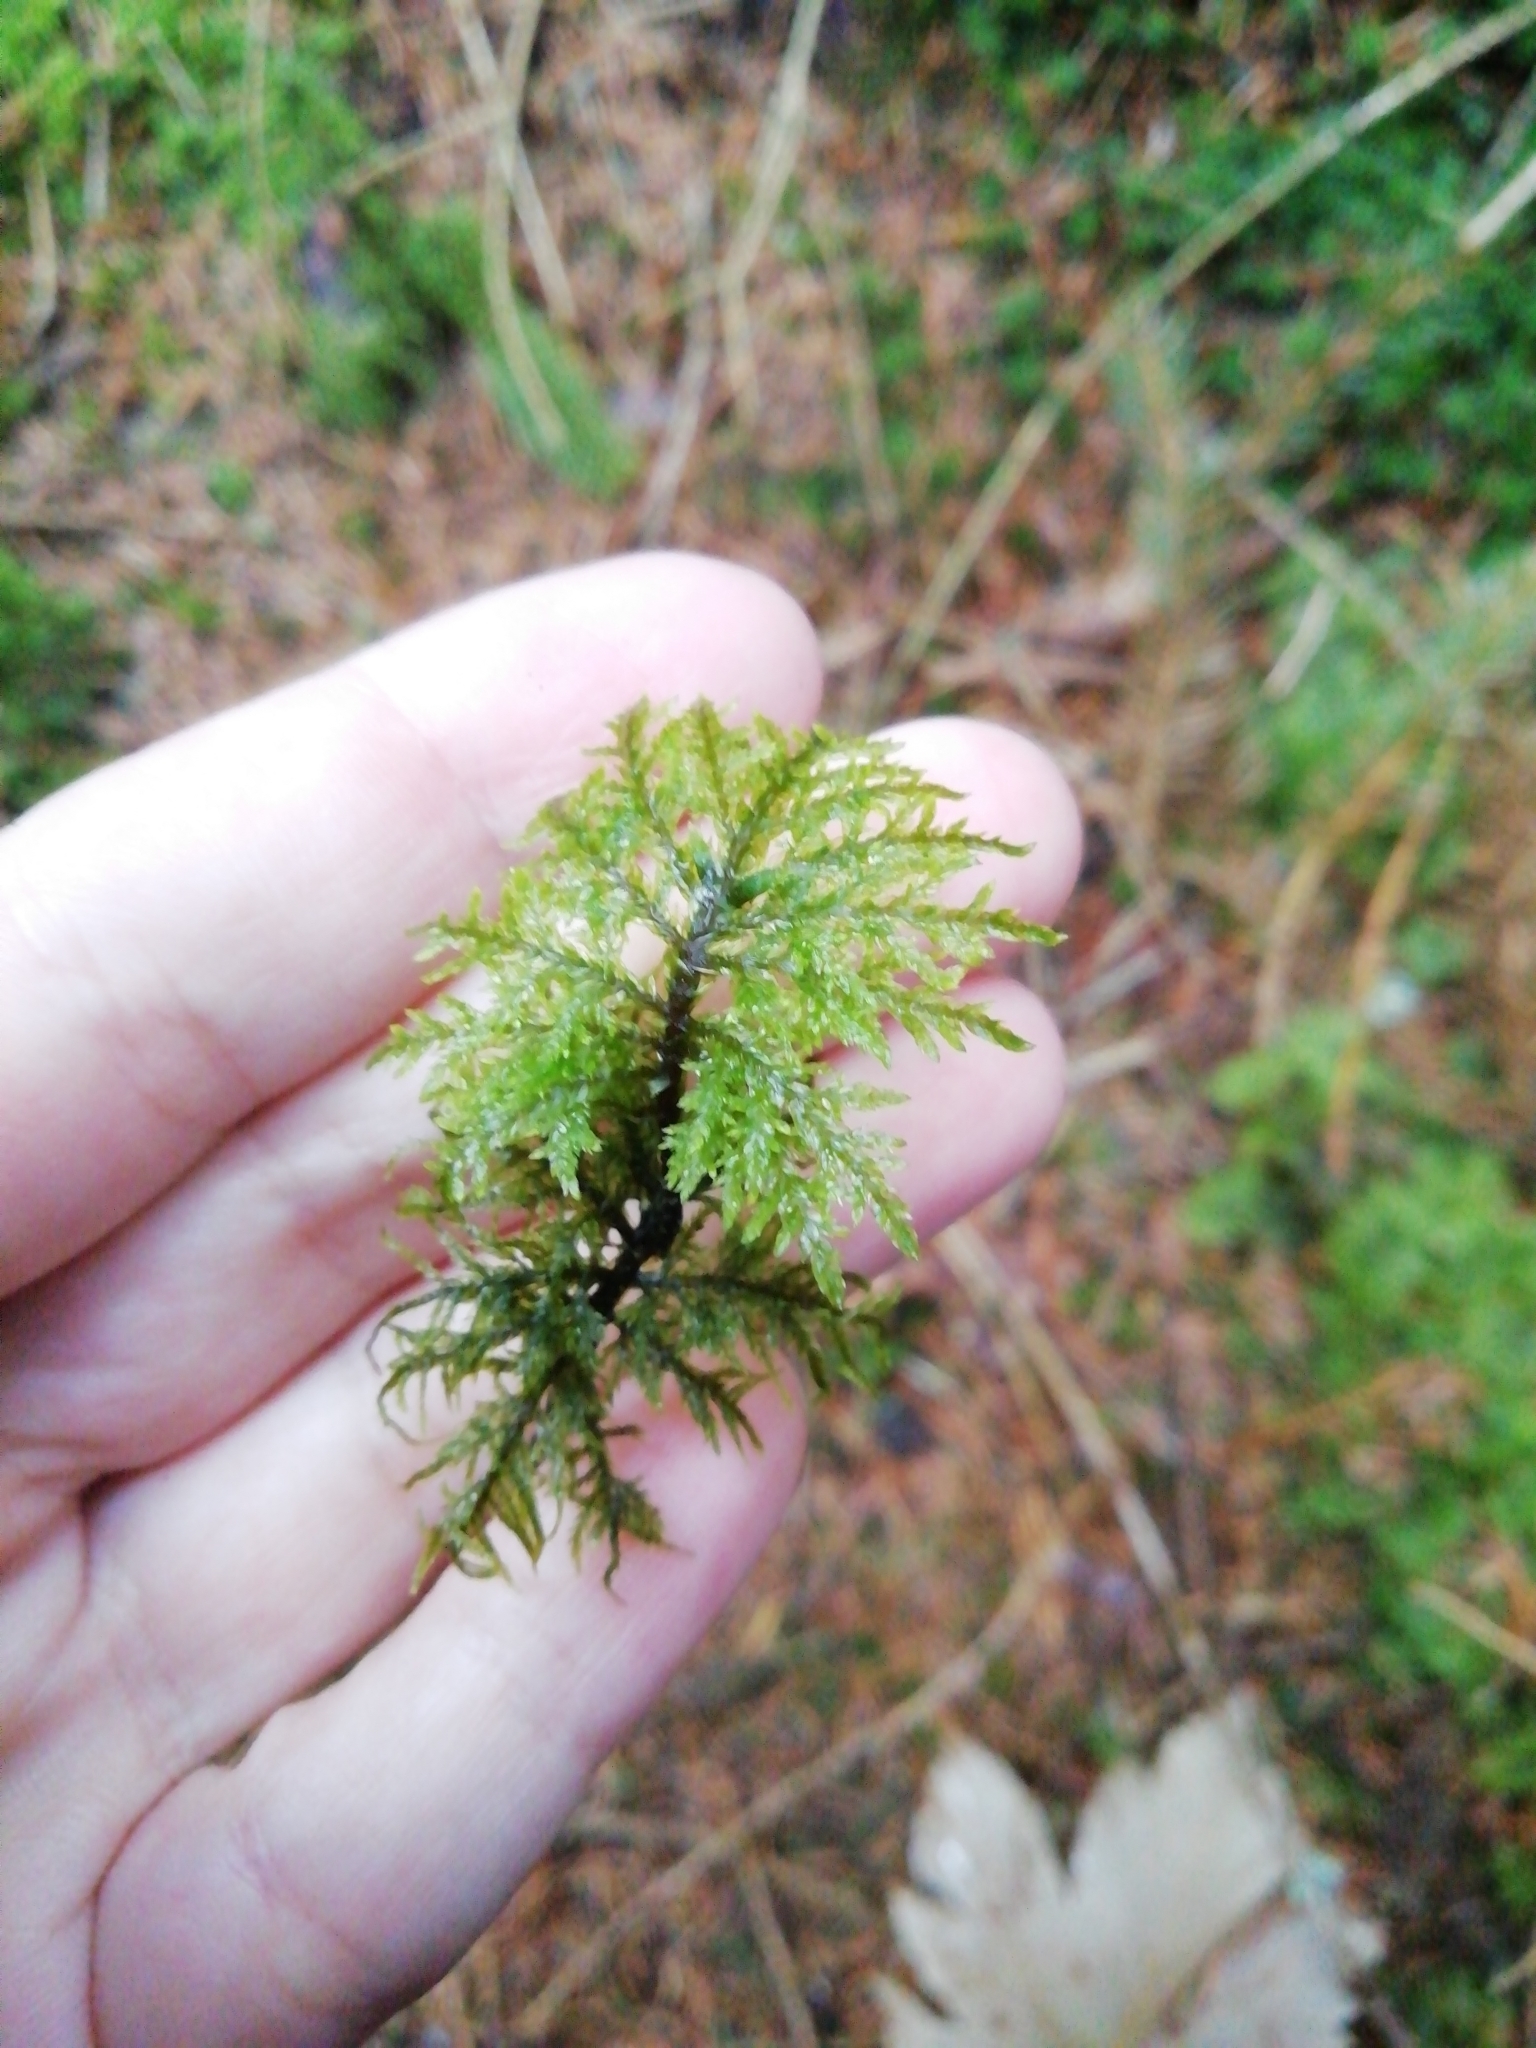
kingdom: Plantae
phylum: Bryophyta
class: Bryopsida
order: Hypnales
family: Hylocomiaceae
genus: Hylocomium
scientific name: Hylocomium splendens
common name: Stairstep moss
